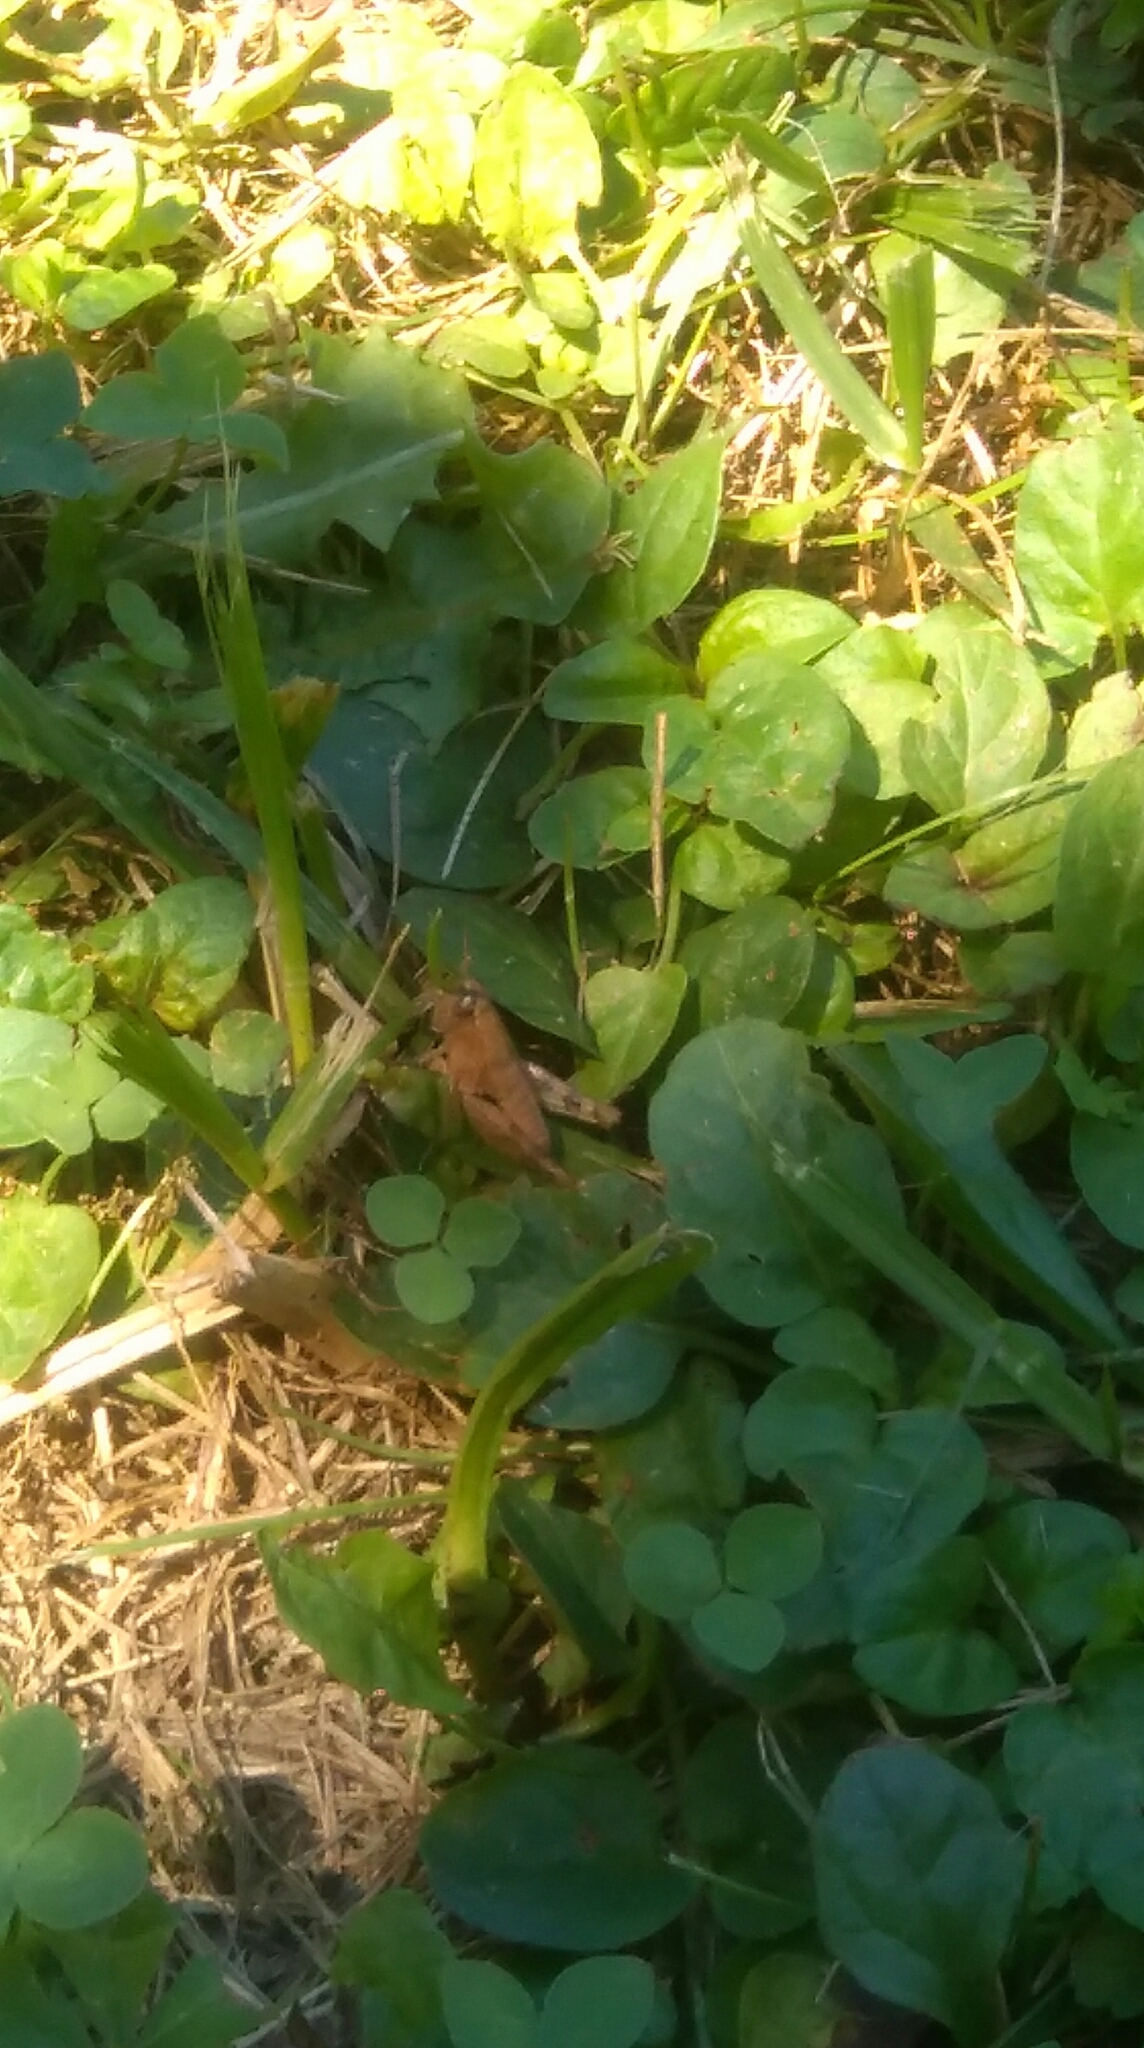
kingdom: Animalia
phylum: Arthropoda
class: Insecta
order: Orthoptera
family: Acrididae
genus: Pezotettix
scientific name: Pezotettix giornae
